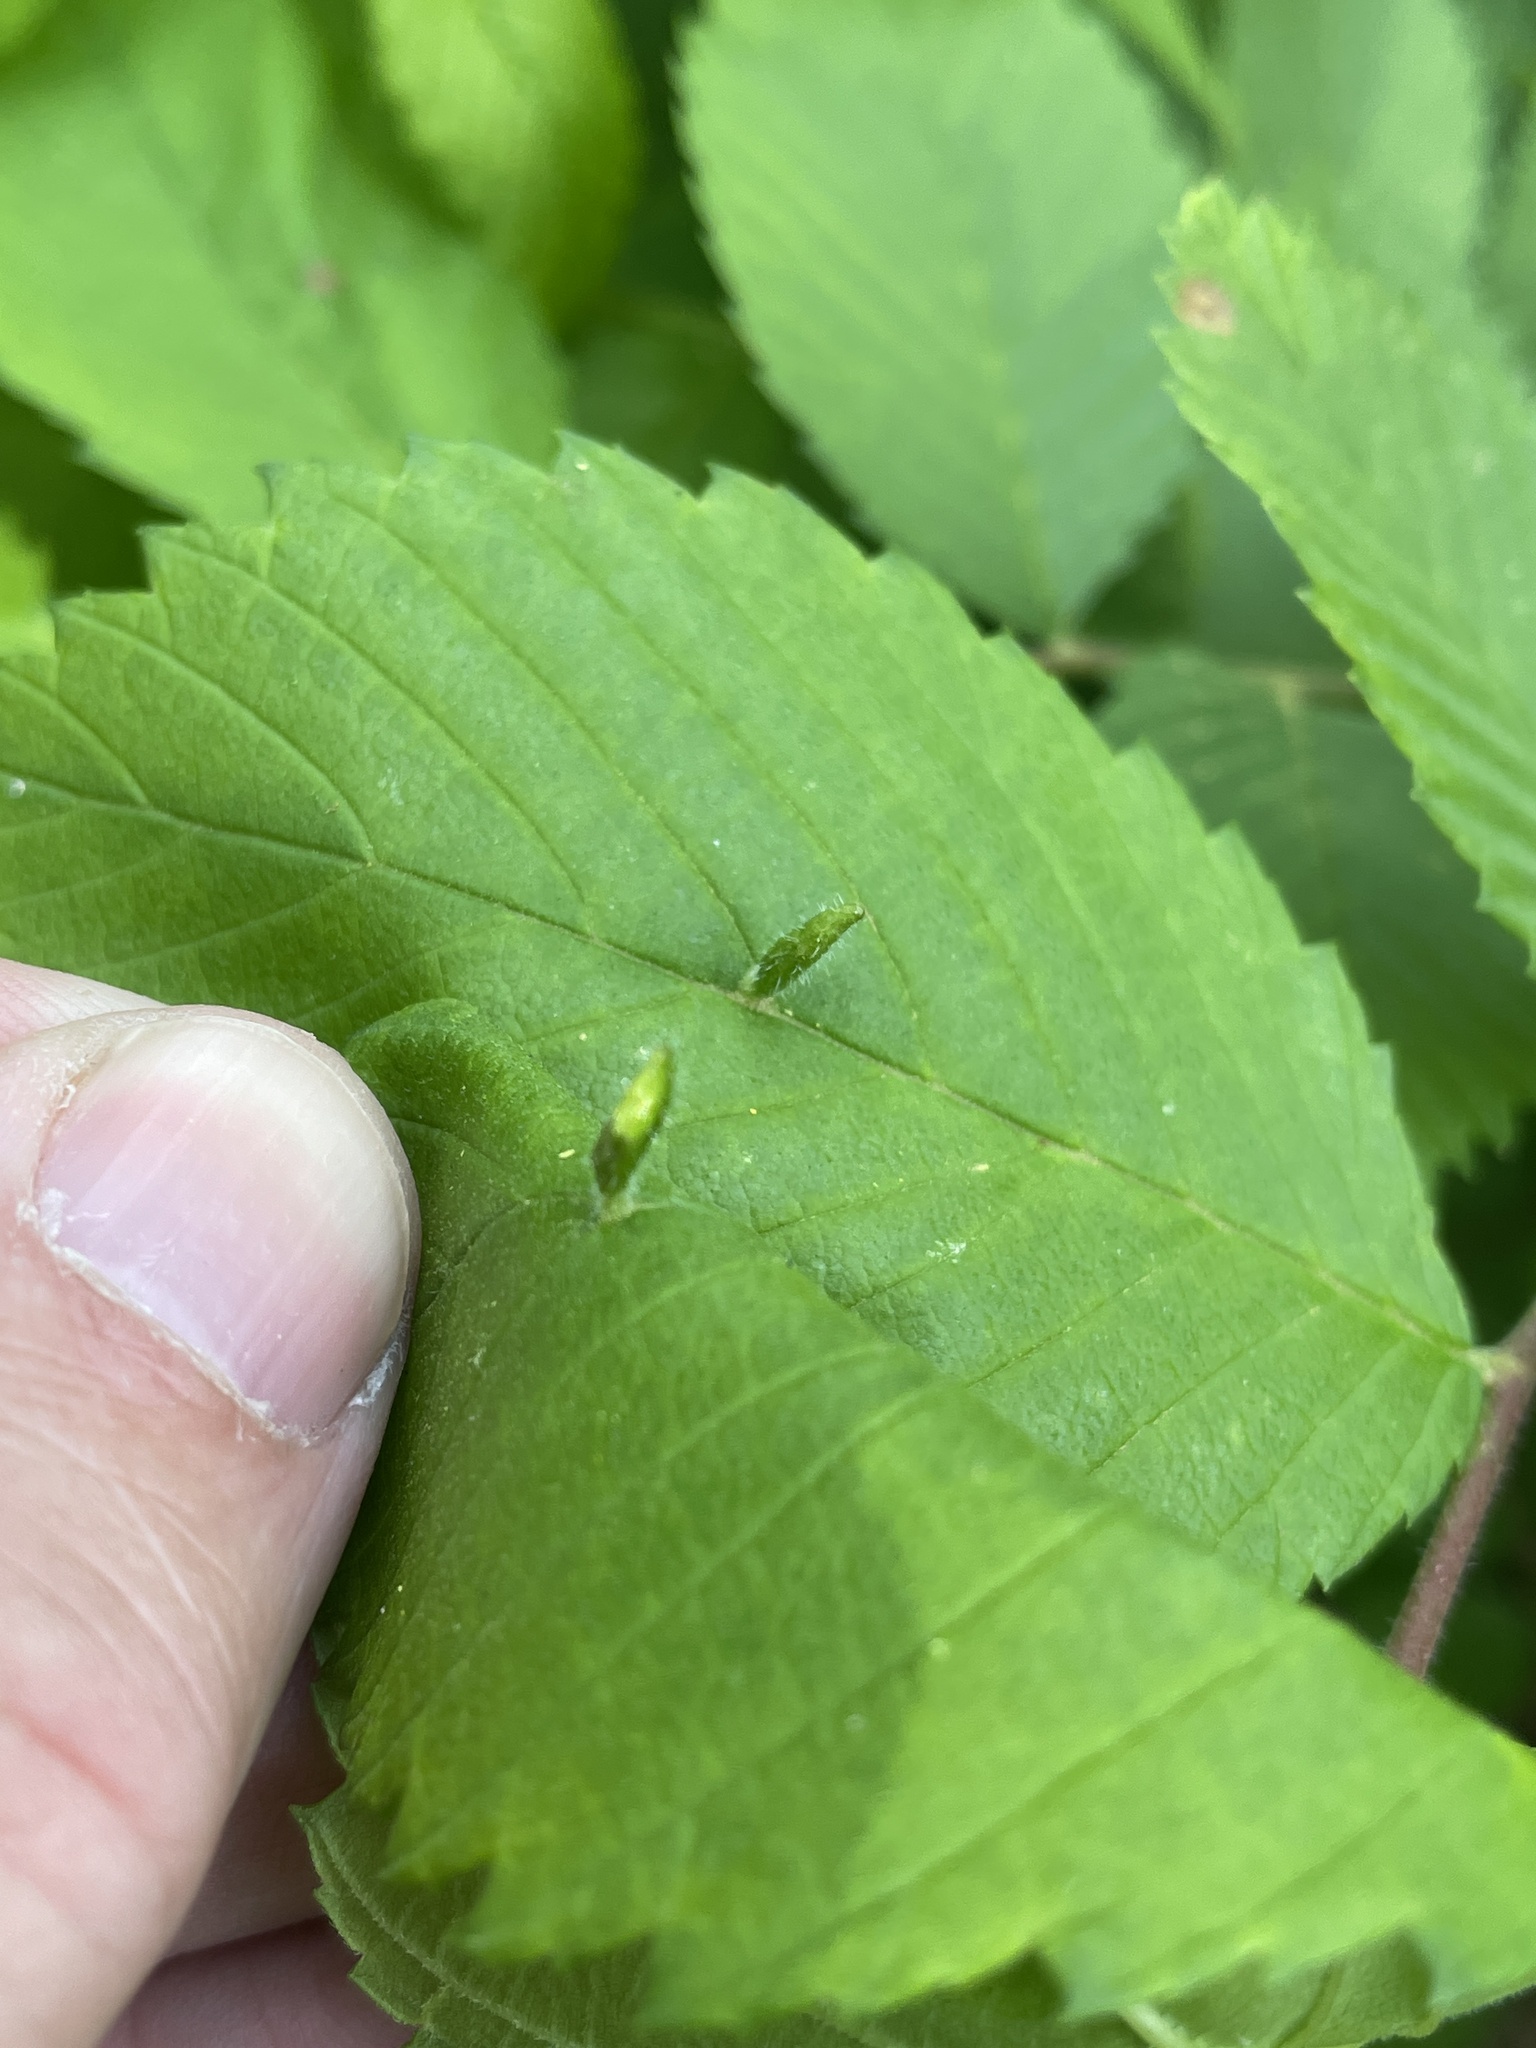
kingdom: Animalia
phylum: Arthropoda
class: Arachnida
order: Trombidiformes
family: Eriophyidae
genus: Aceria
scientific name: Aceria
